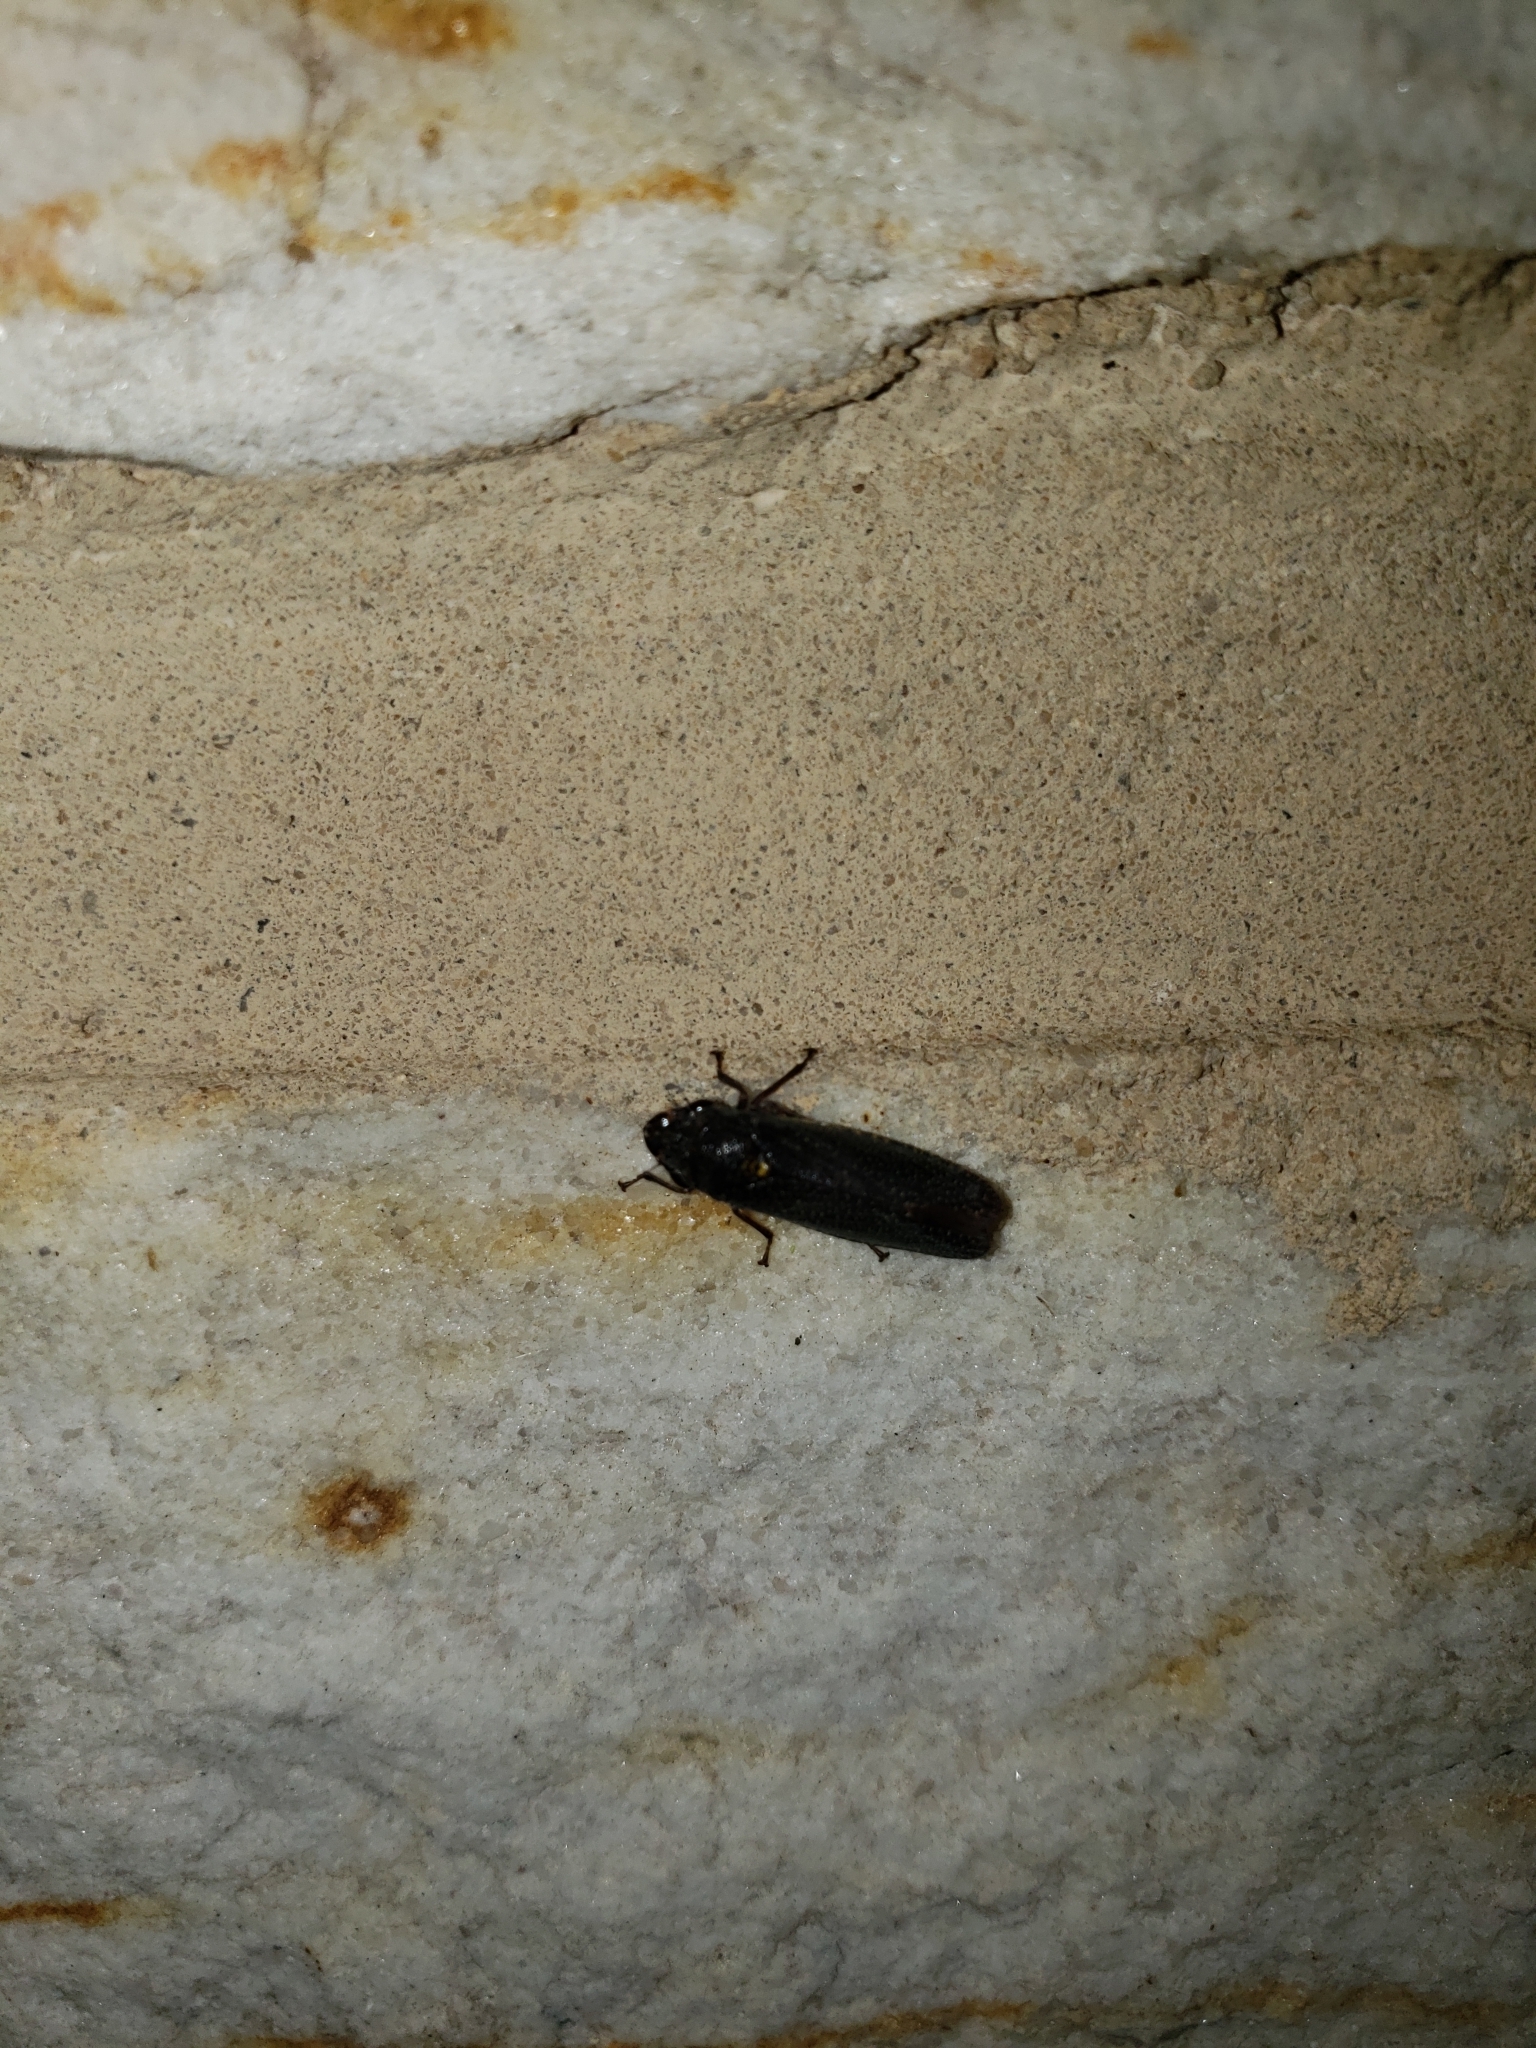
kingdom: Animalia
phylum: Arthropoda
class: Insecta
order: Hemiptera
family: Cicadellidae
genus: Paraulacizes
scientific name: Paraulacizes irrorata
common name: Speckled sharpshooter
